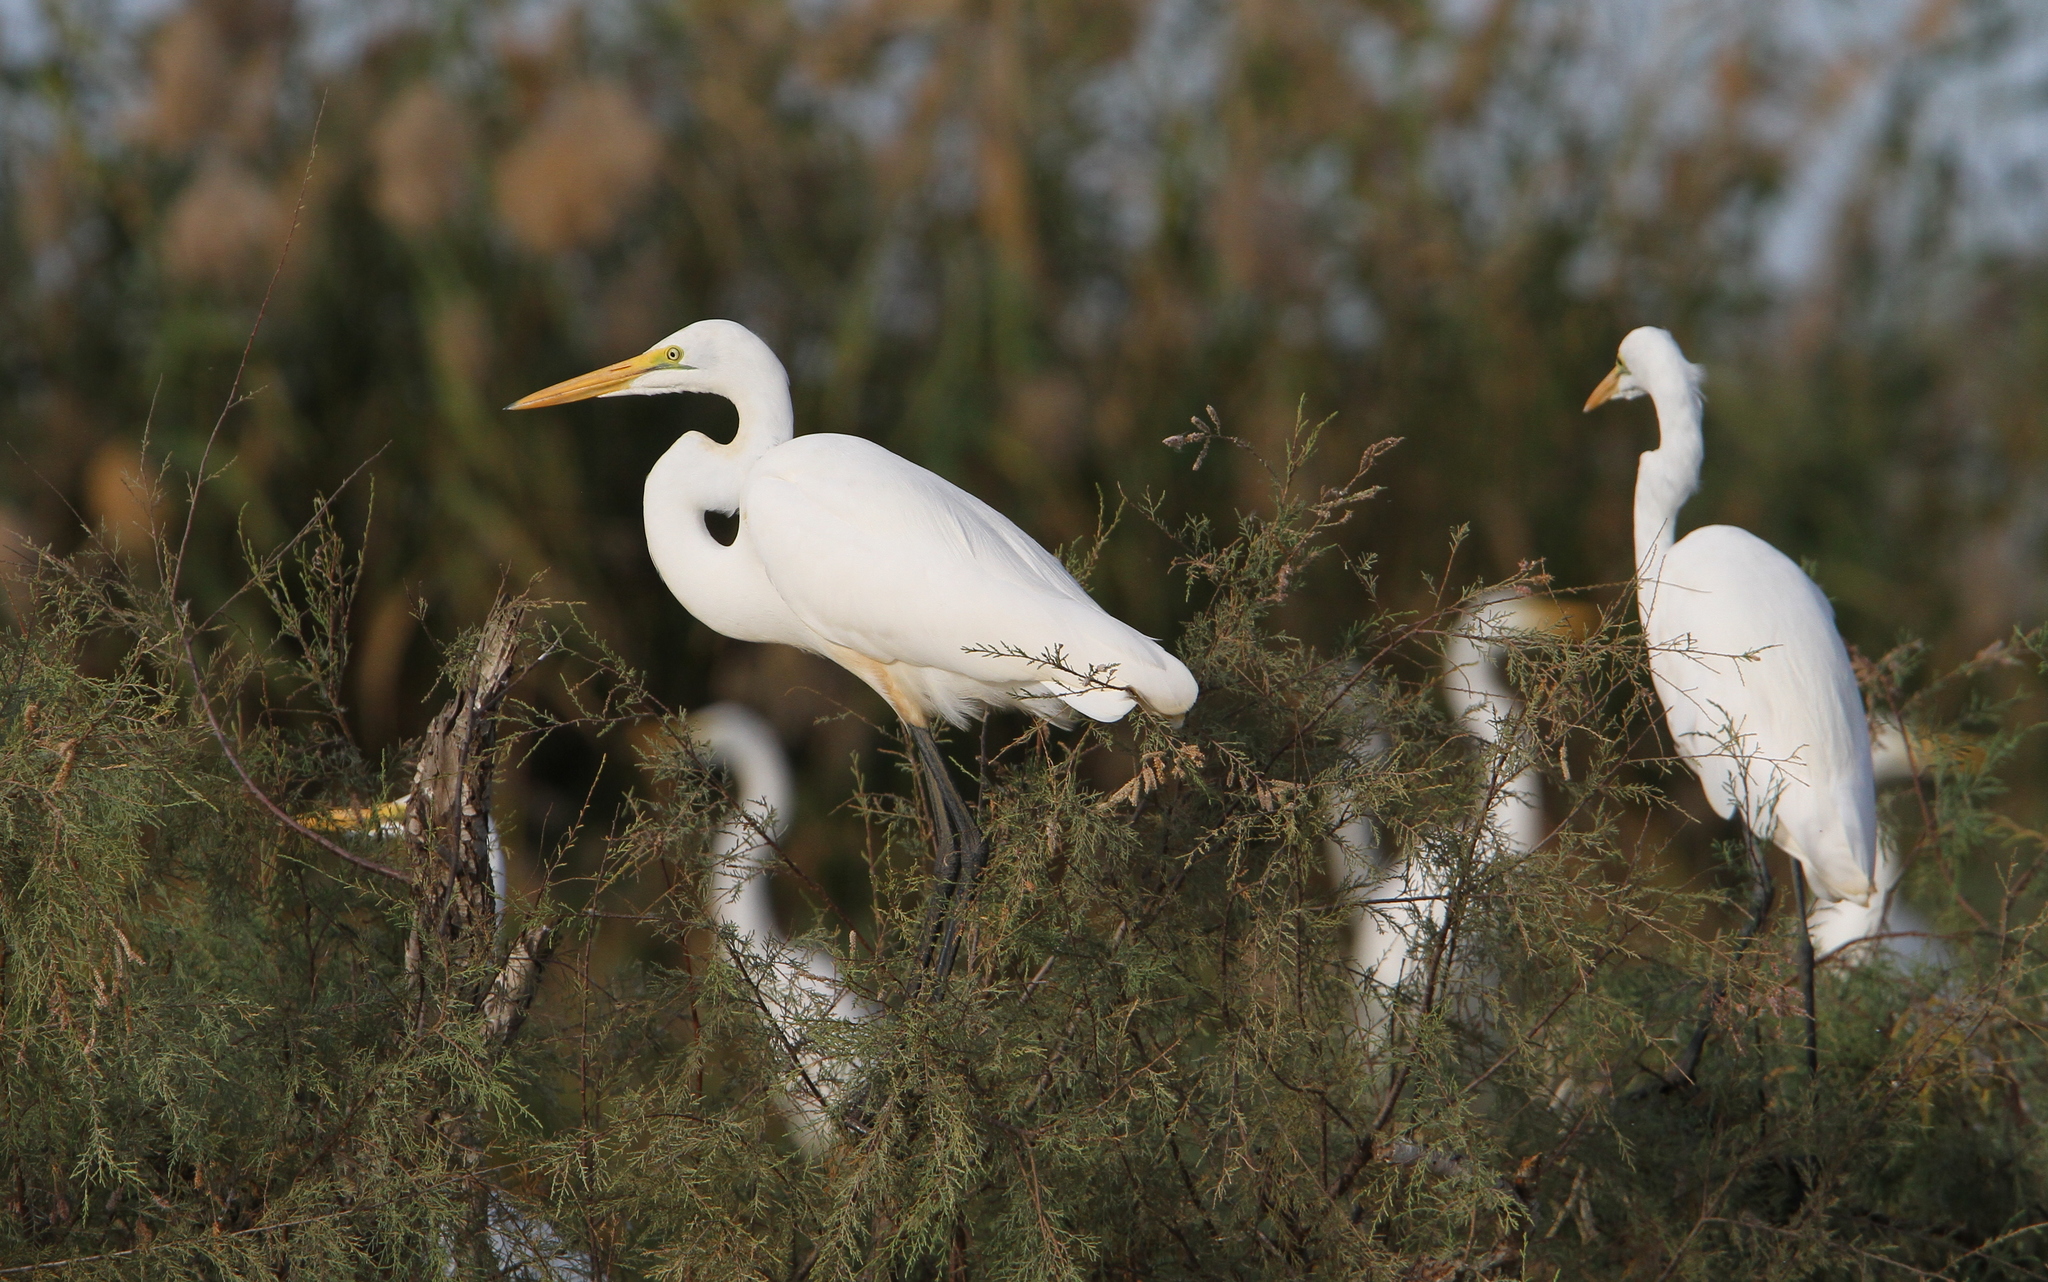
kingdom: Animalia
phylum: Chordata
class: Aves
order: Pelecaniformes
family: Ardeidae
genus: Ardea
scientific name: Ardea alba
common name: Great egret
